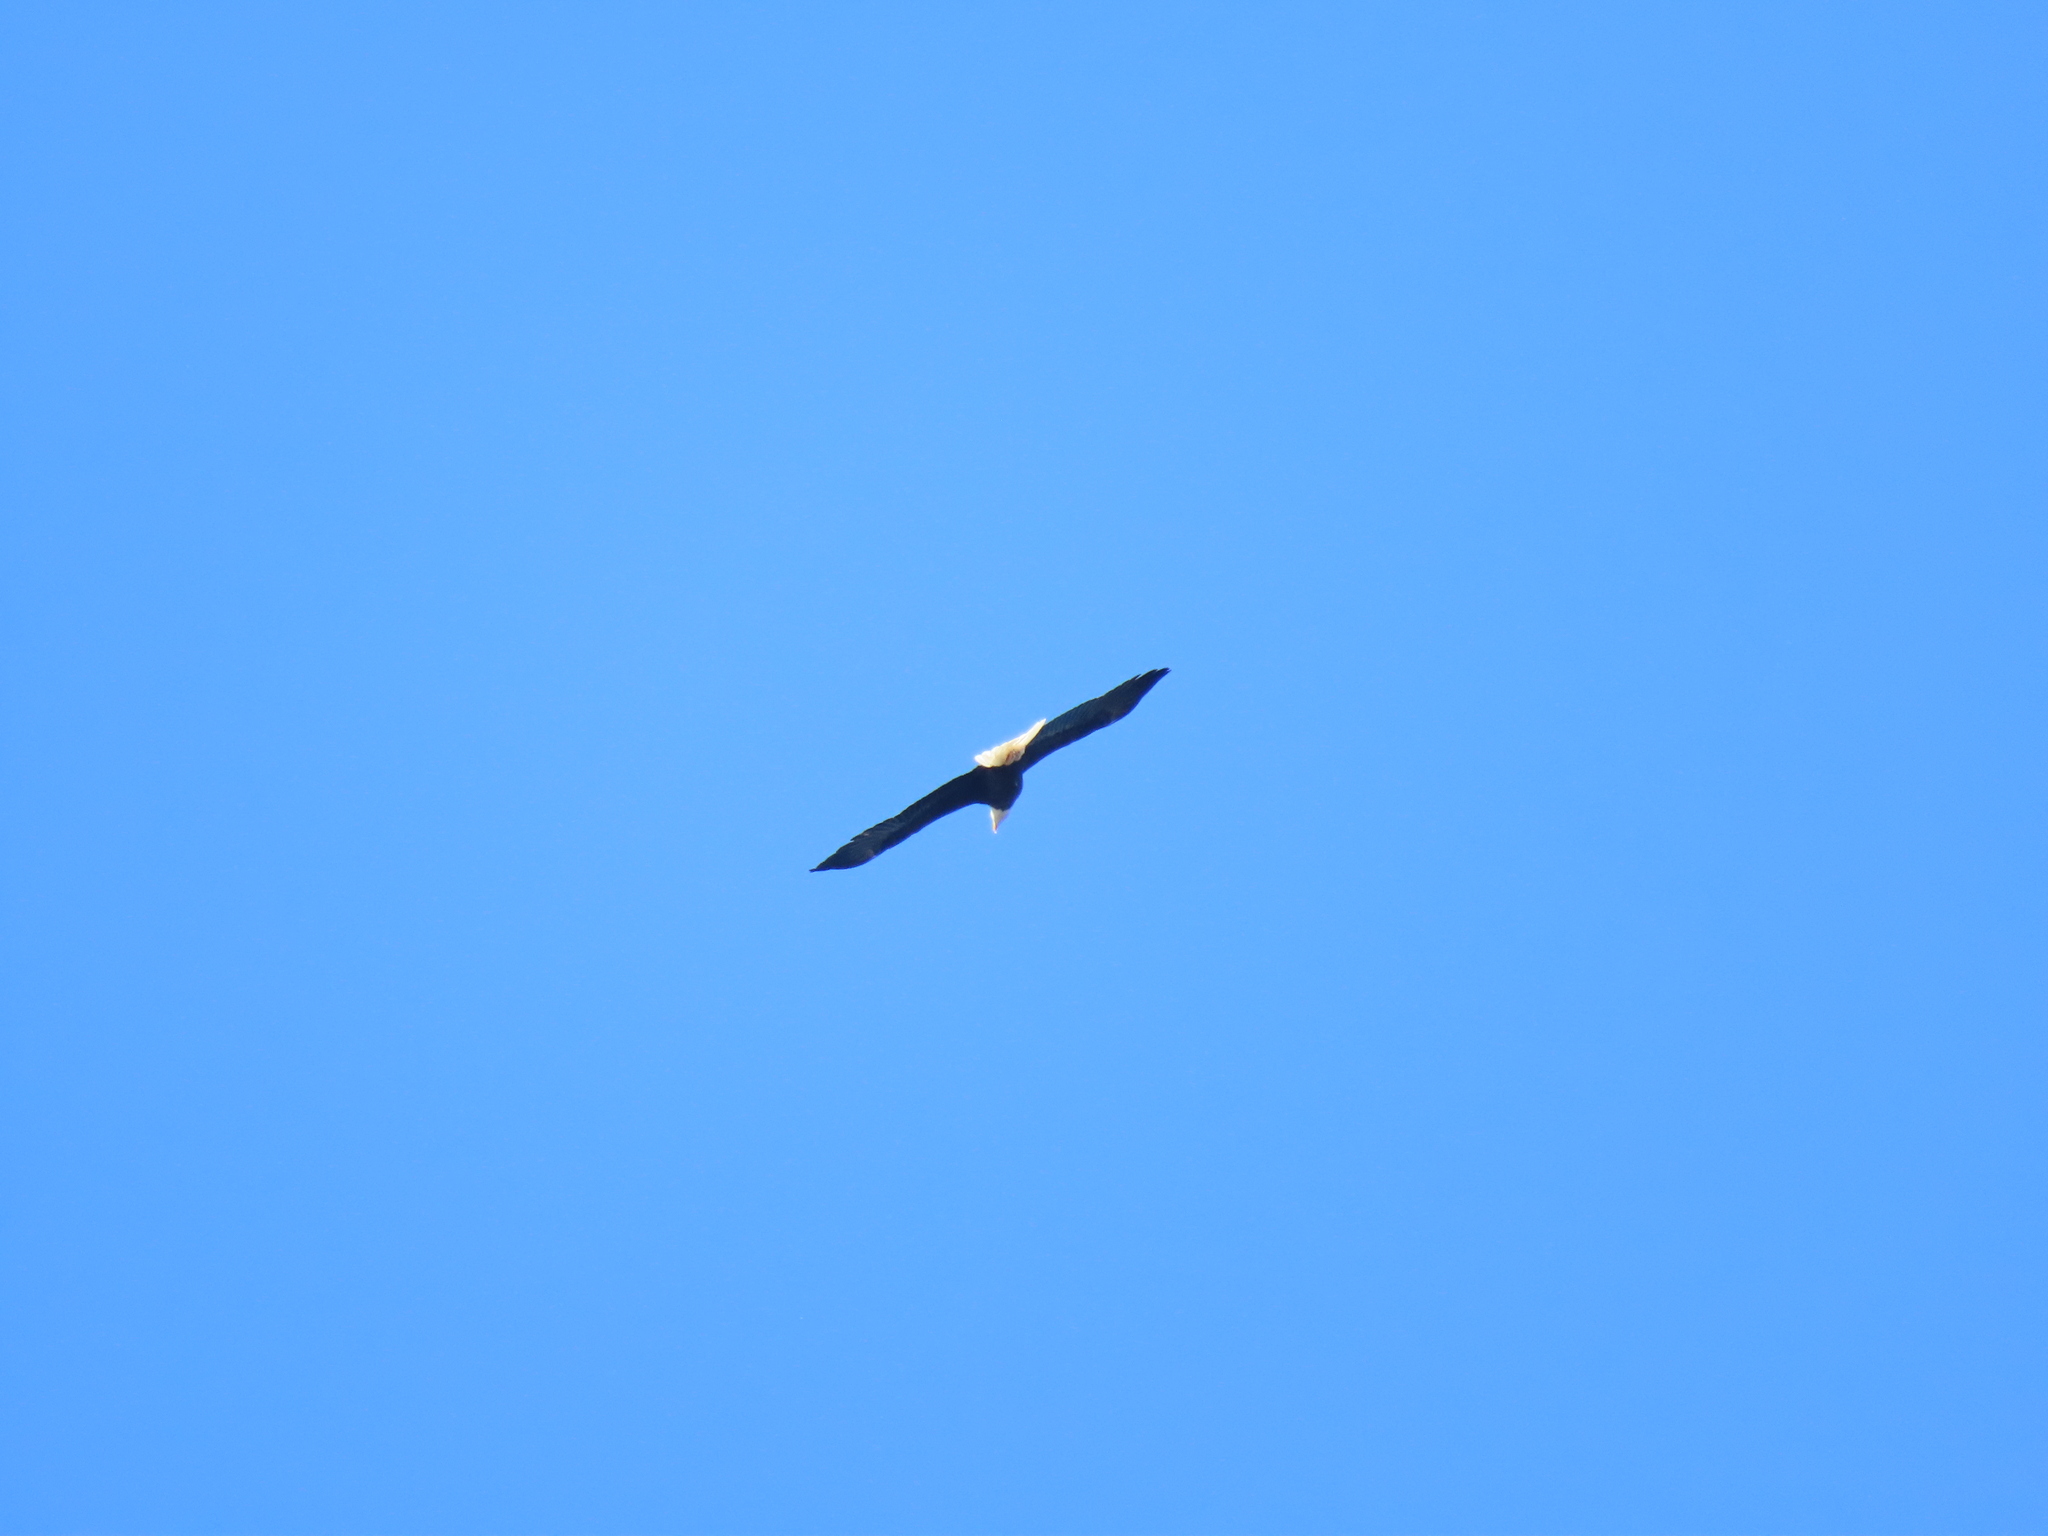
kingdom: Animalia
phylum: Chordata
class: Aves
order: Accipitriformes
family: Accipitridae
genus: Haliaeetus
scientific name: Haliaeetus leucocephalus
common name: Bald eagle
